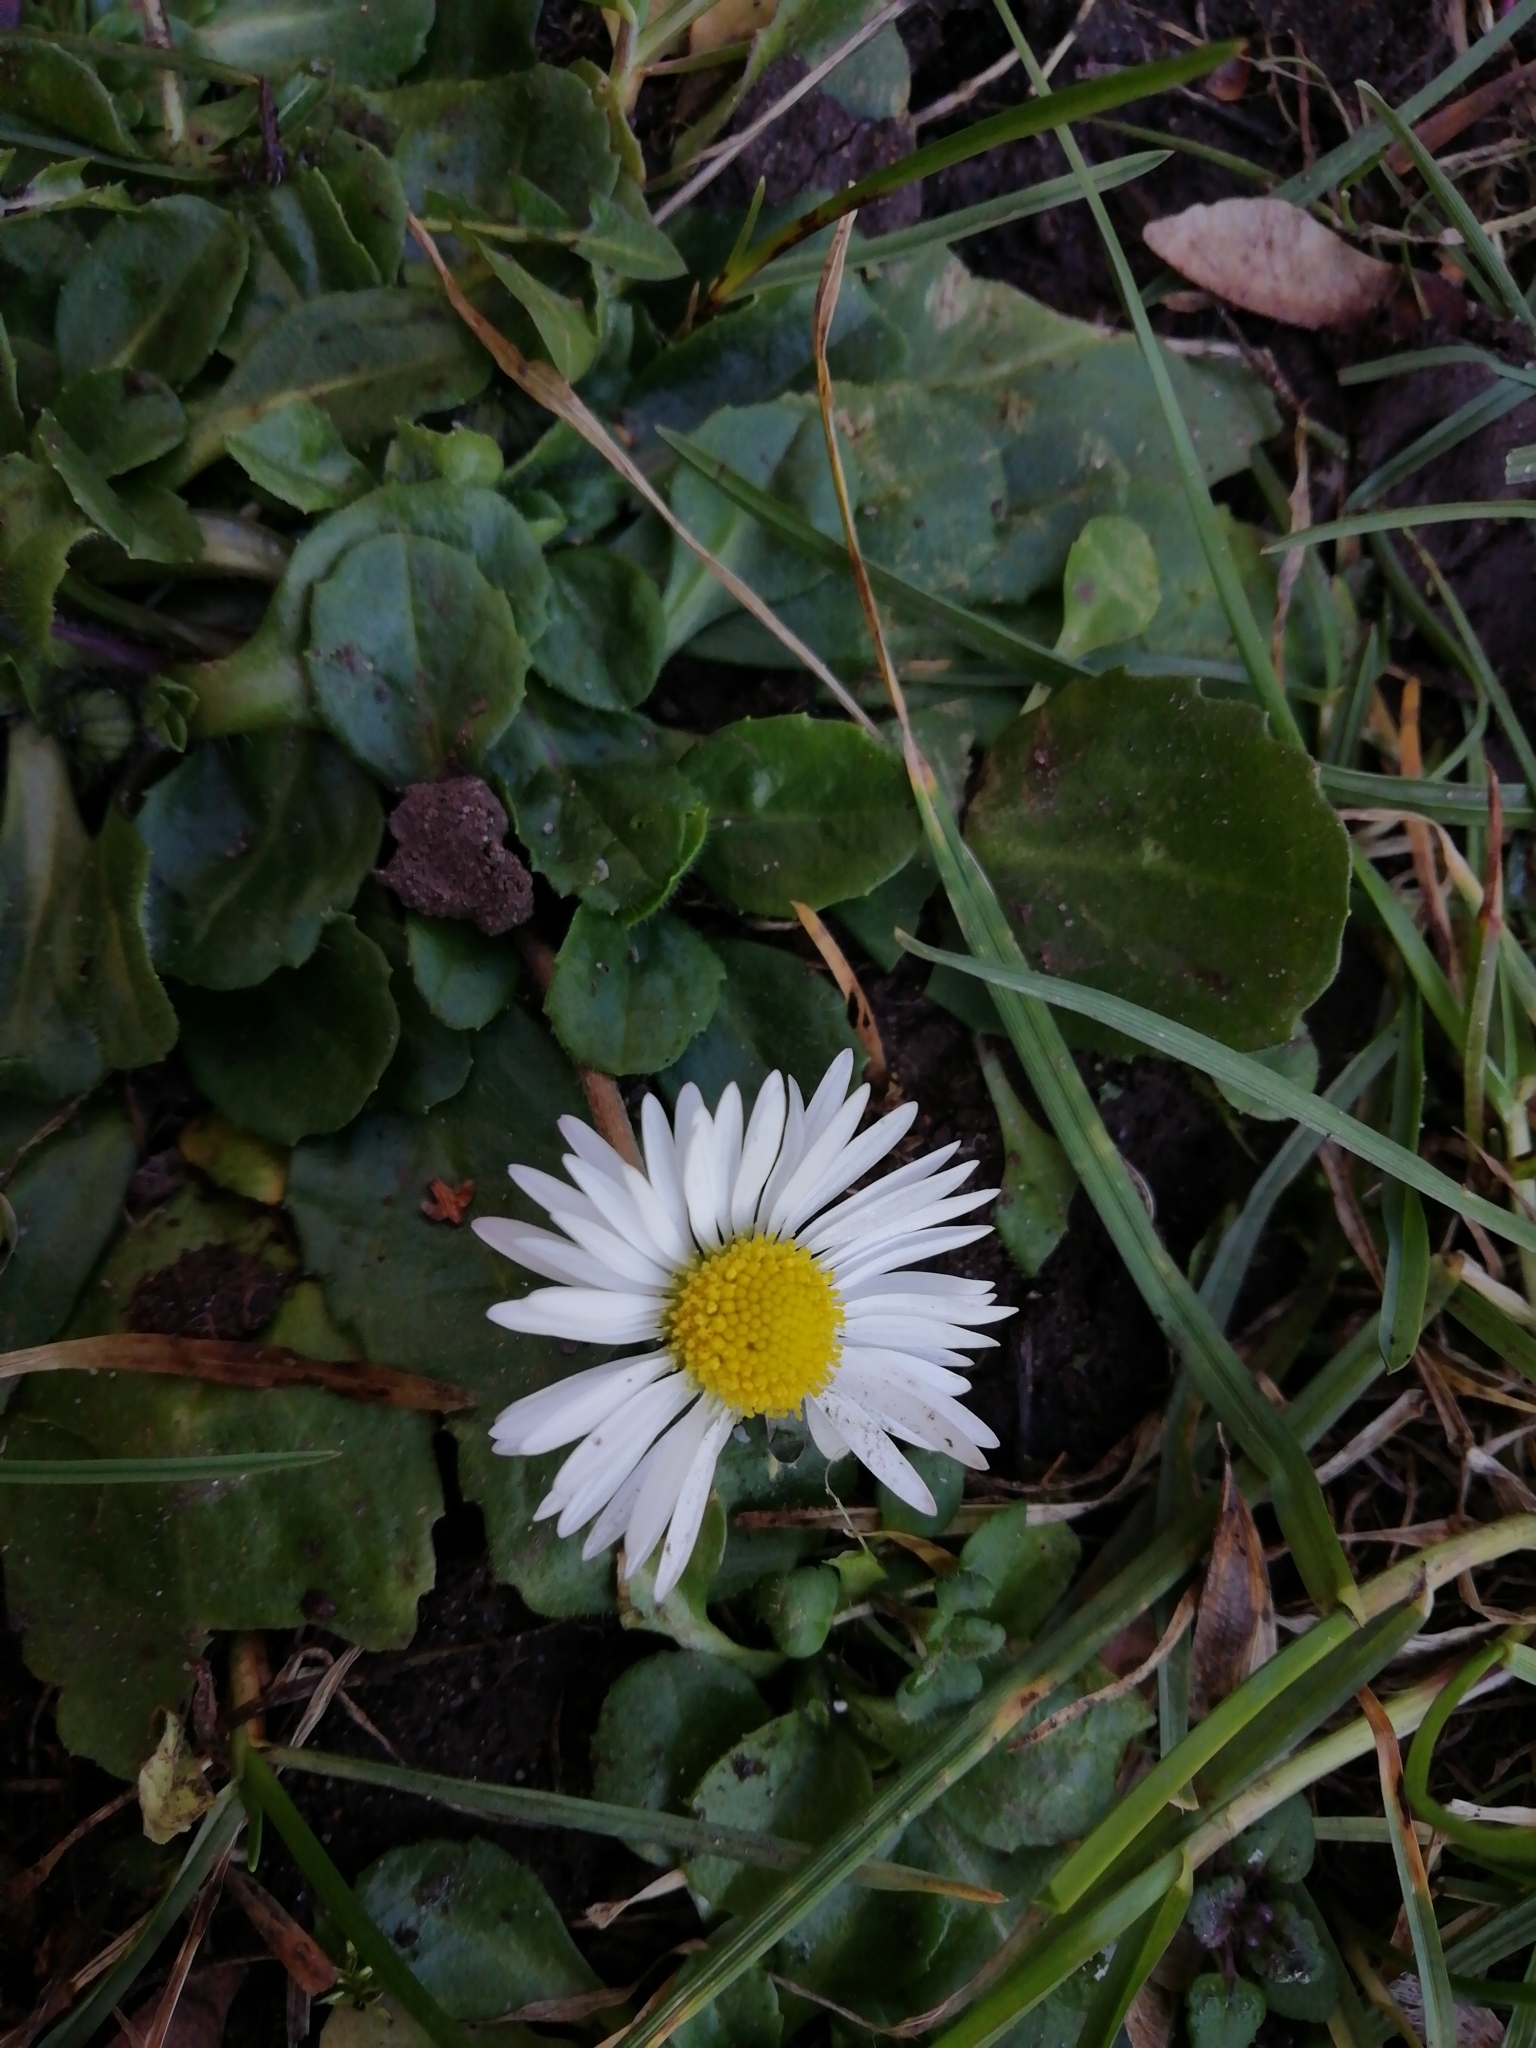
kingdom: Plantae
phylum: Tracheophyta
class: Magnoliopsida
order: Asterales
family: Asteraceae
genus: Bellis
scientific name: Bellis perennis
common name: Lawndaisy
